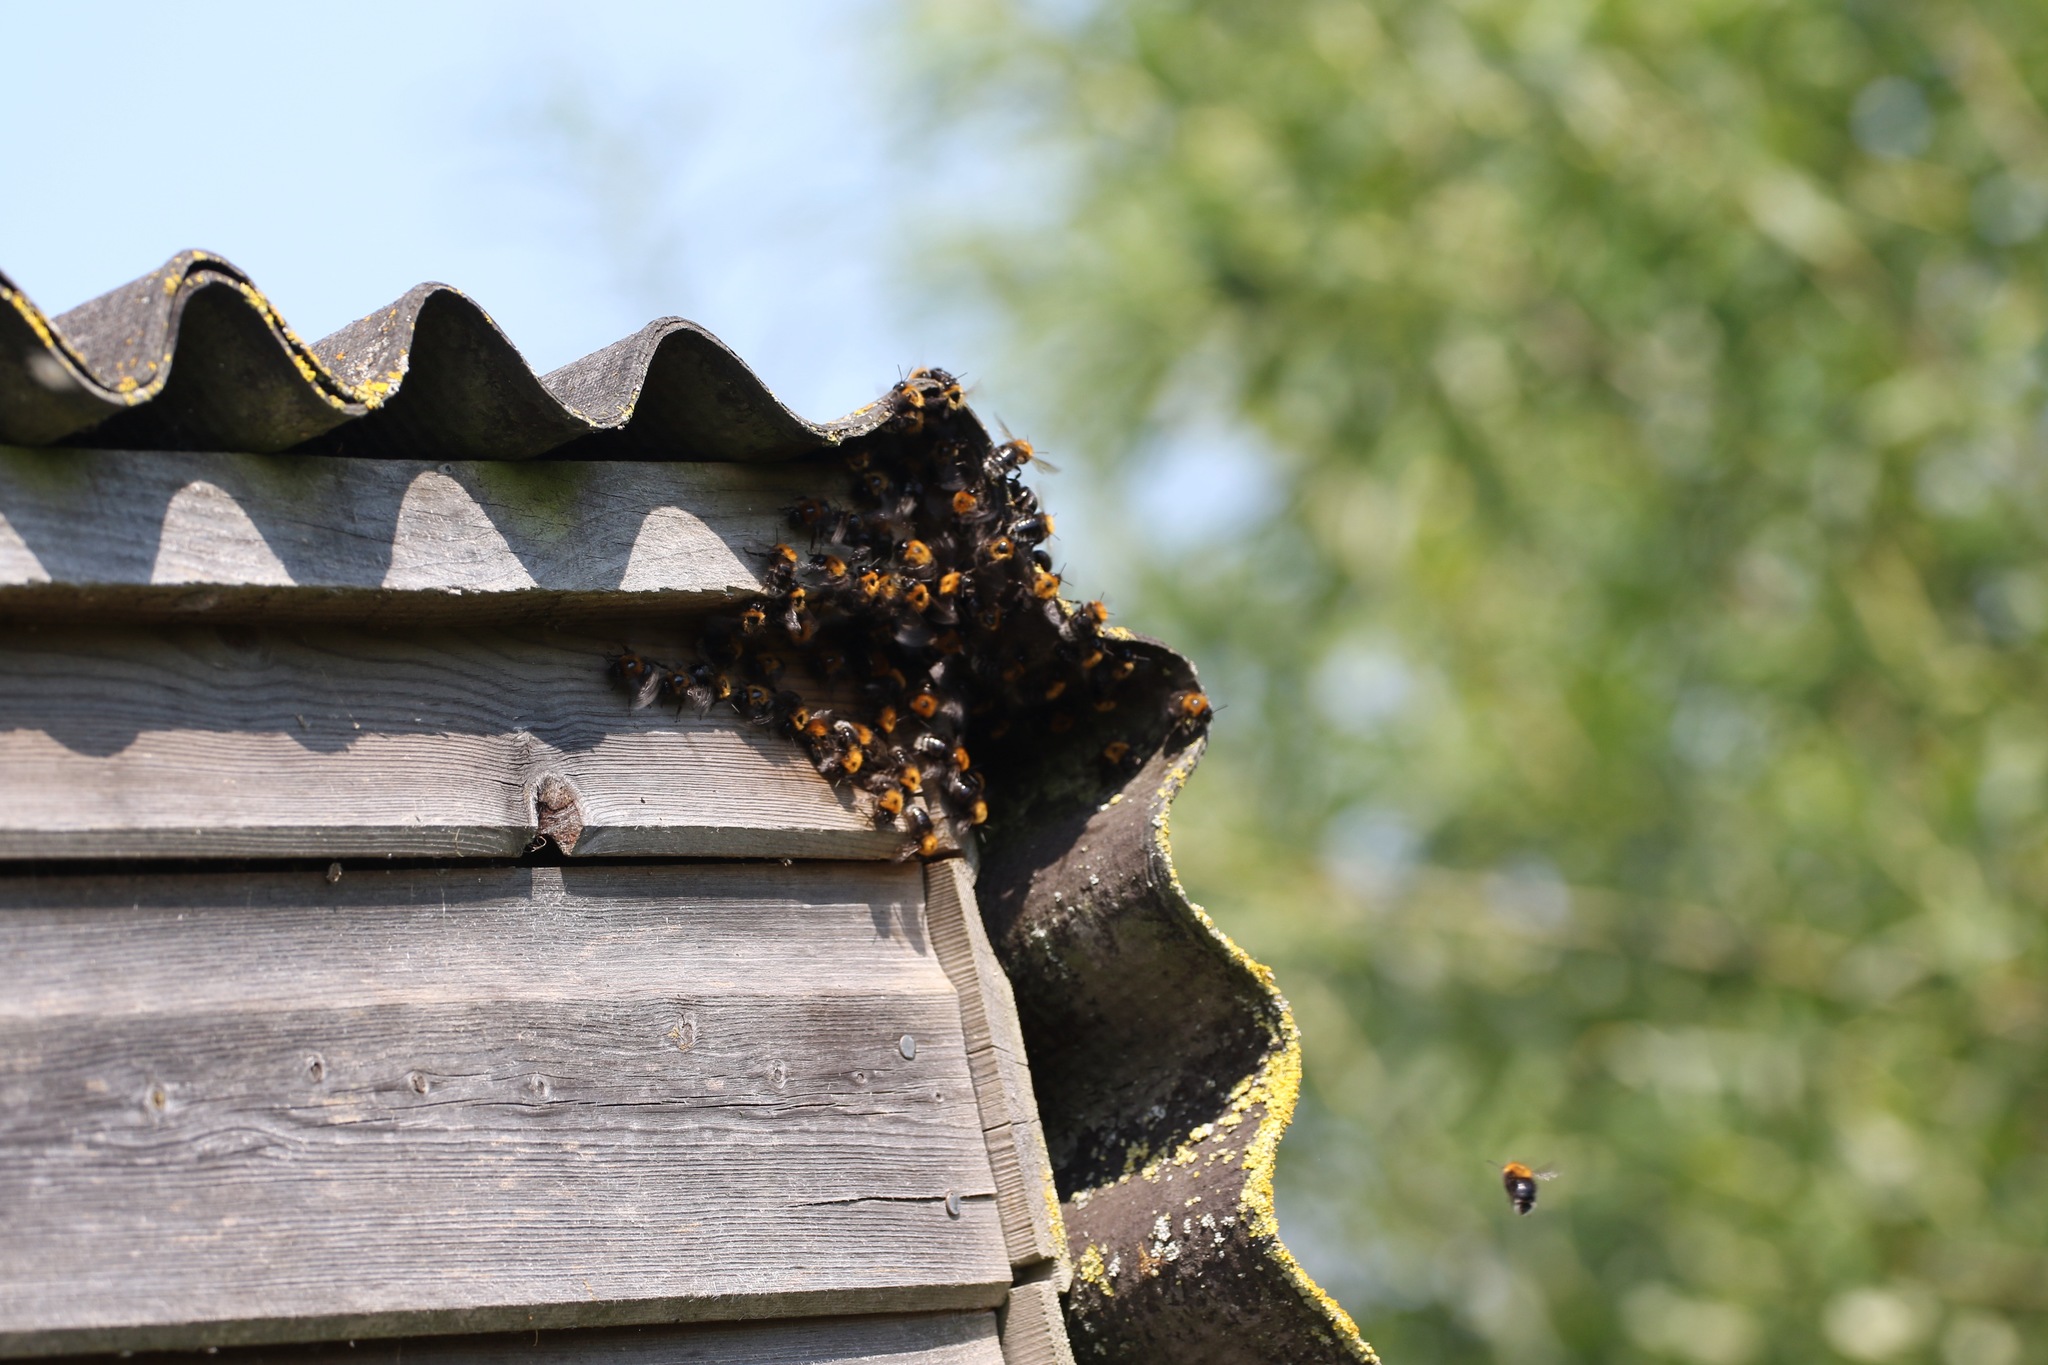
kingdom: Animalia
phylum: Arthropoda
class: Insecta
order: Hymenoptera
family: Apidae
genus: Bombus
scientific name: Bombus hypnorum
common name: New garden bumblebee
